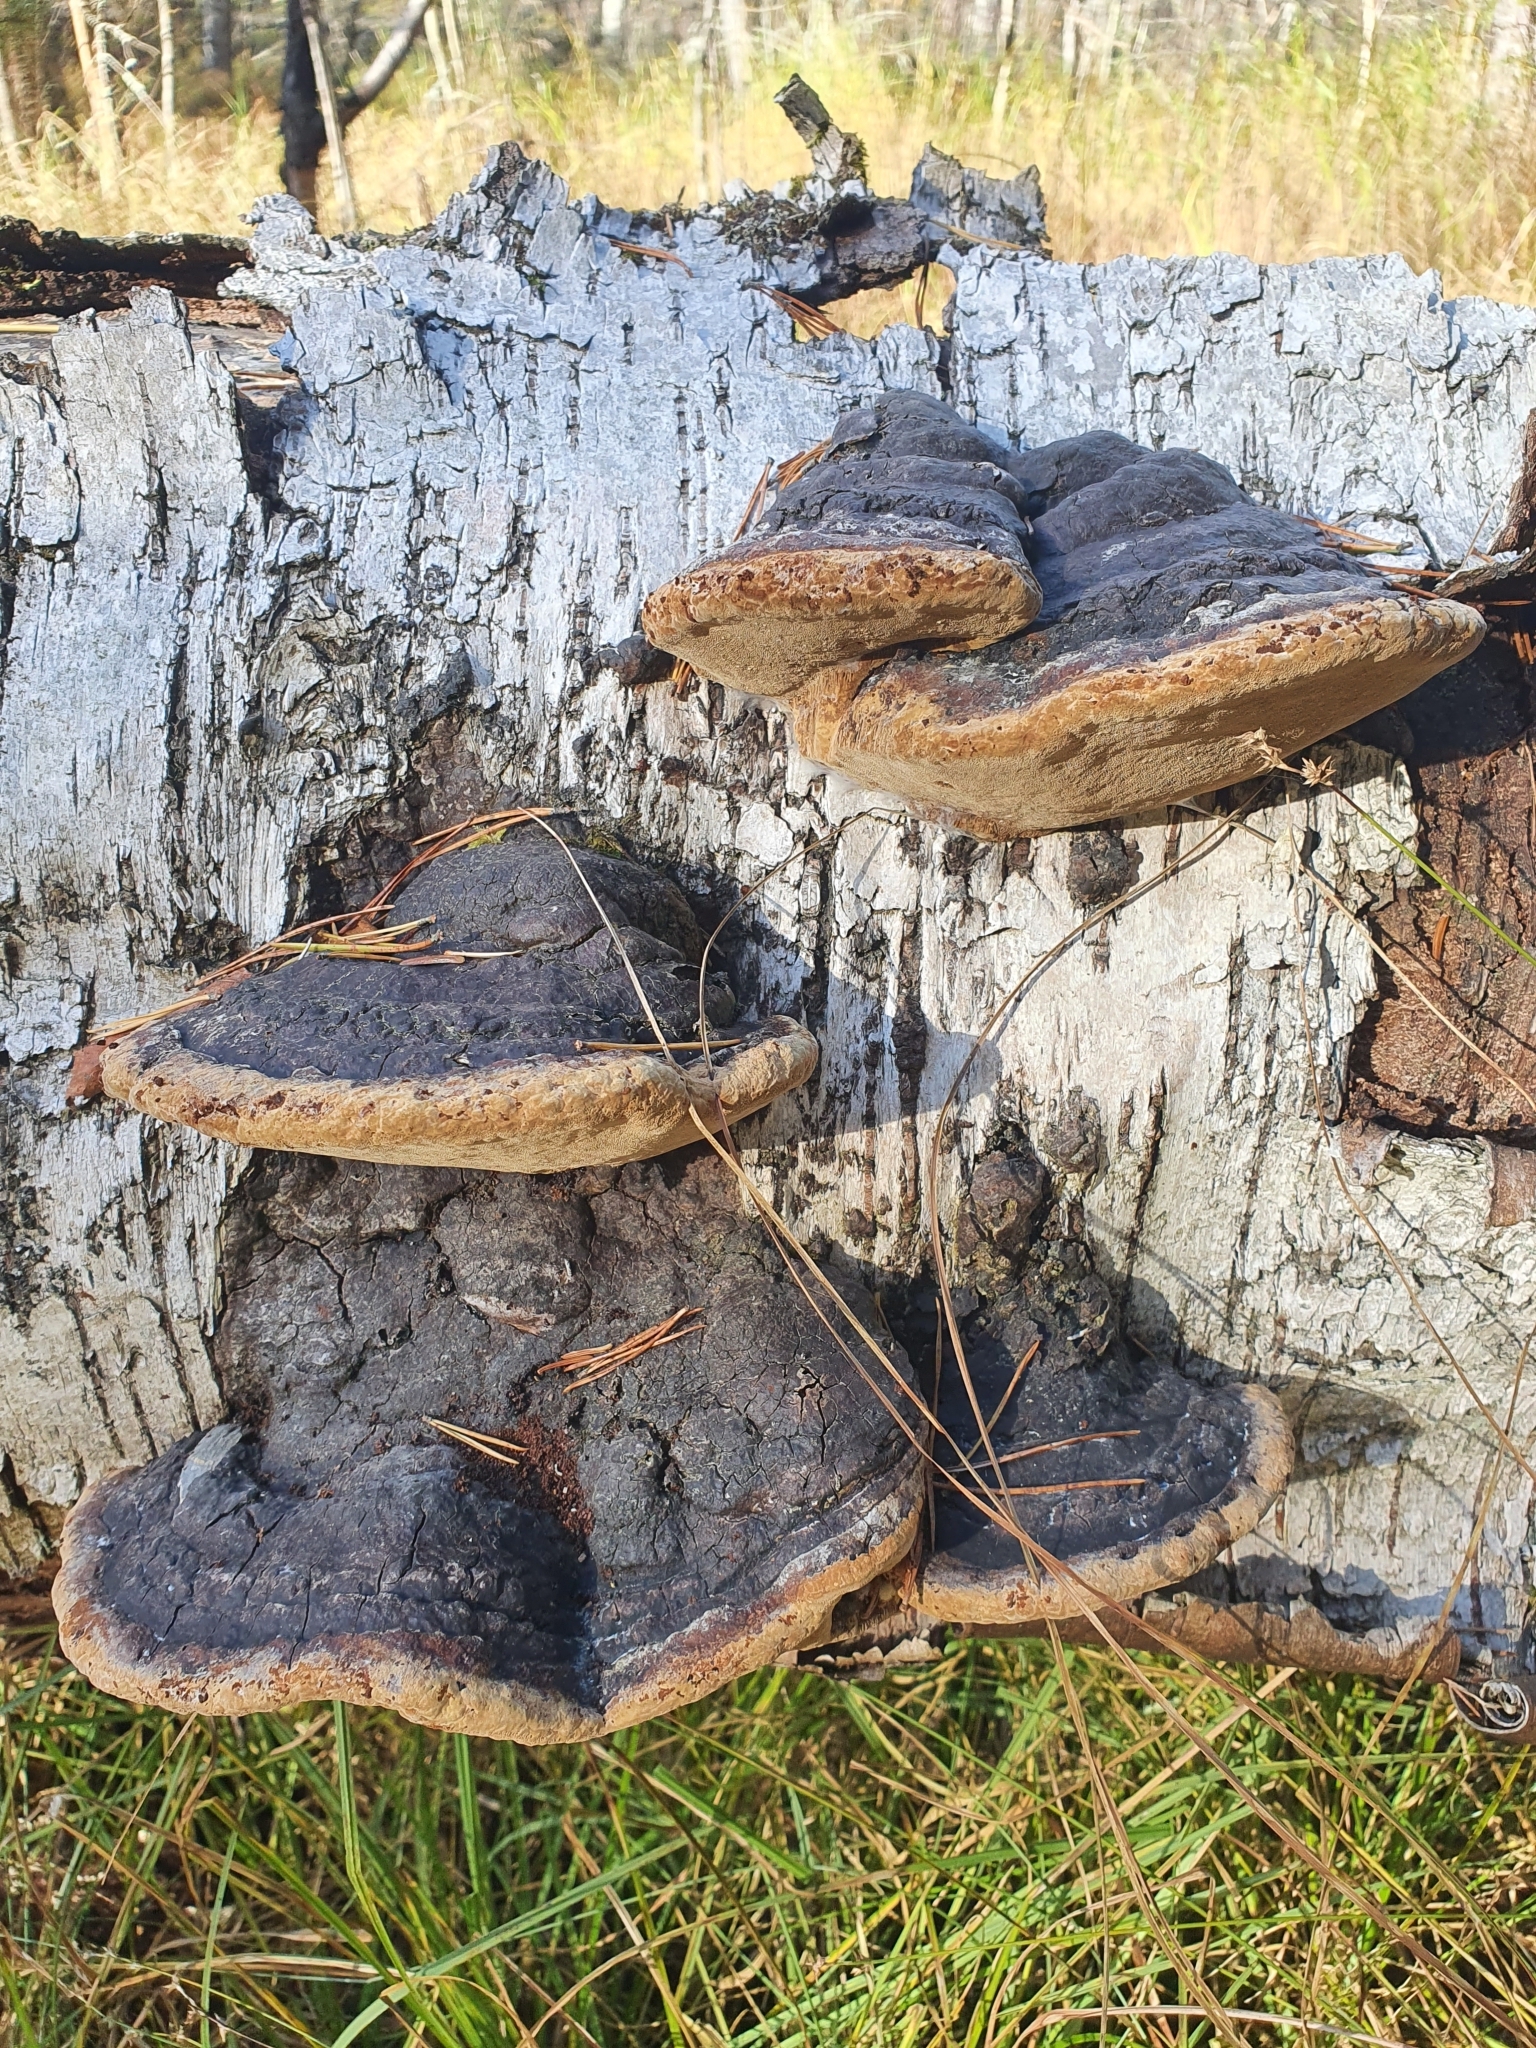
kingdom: Fungi
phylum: Basidiomycota
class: Agaricomycetes
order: Hymenochaetales
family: Hymenochaetaceae
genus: Phellinus
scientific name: Phellinus igniarius
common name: Willow bracket
